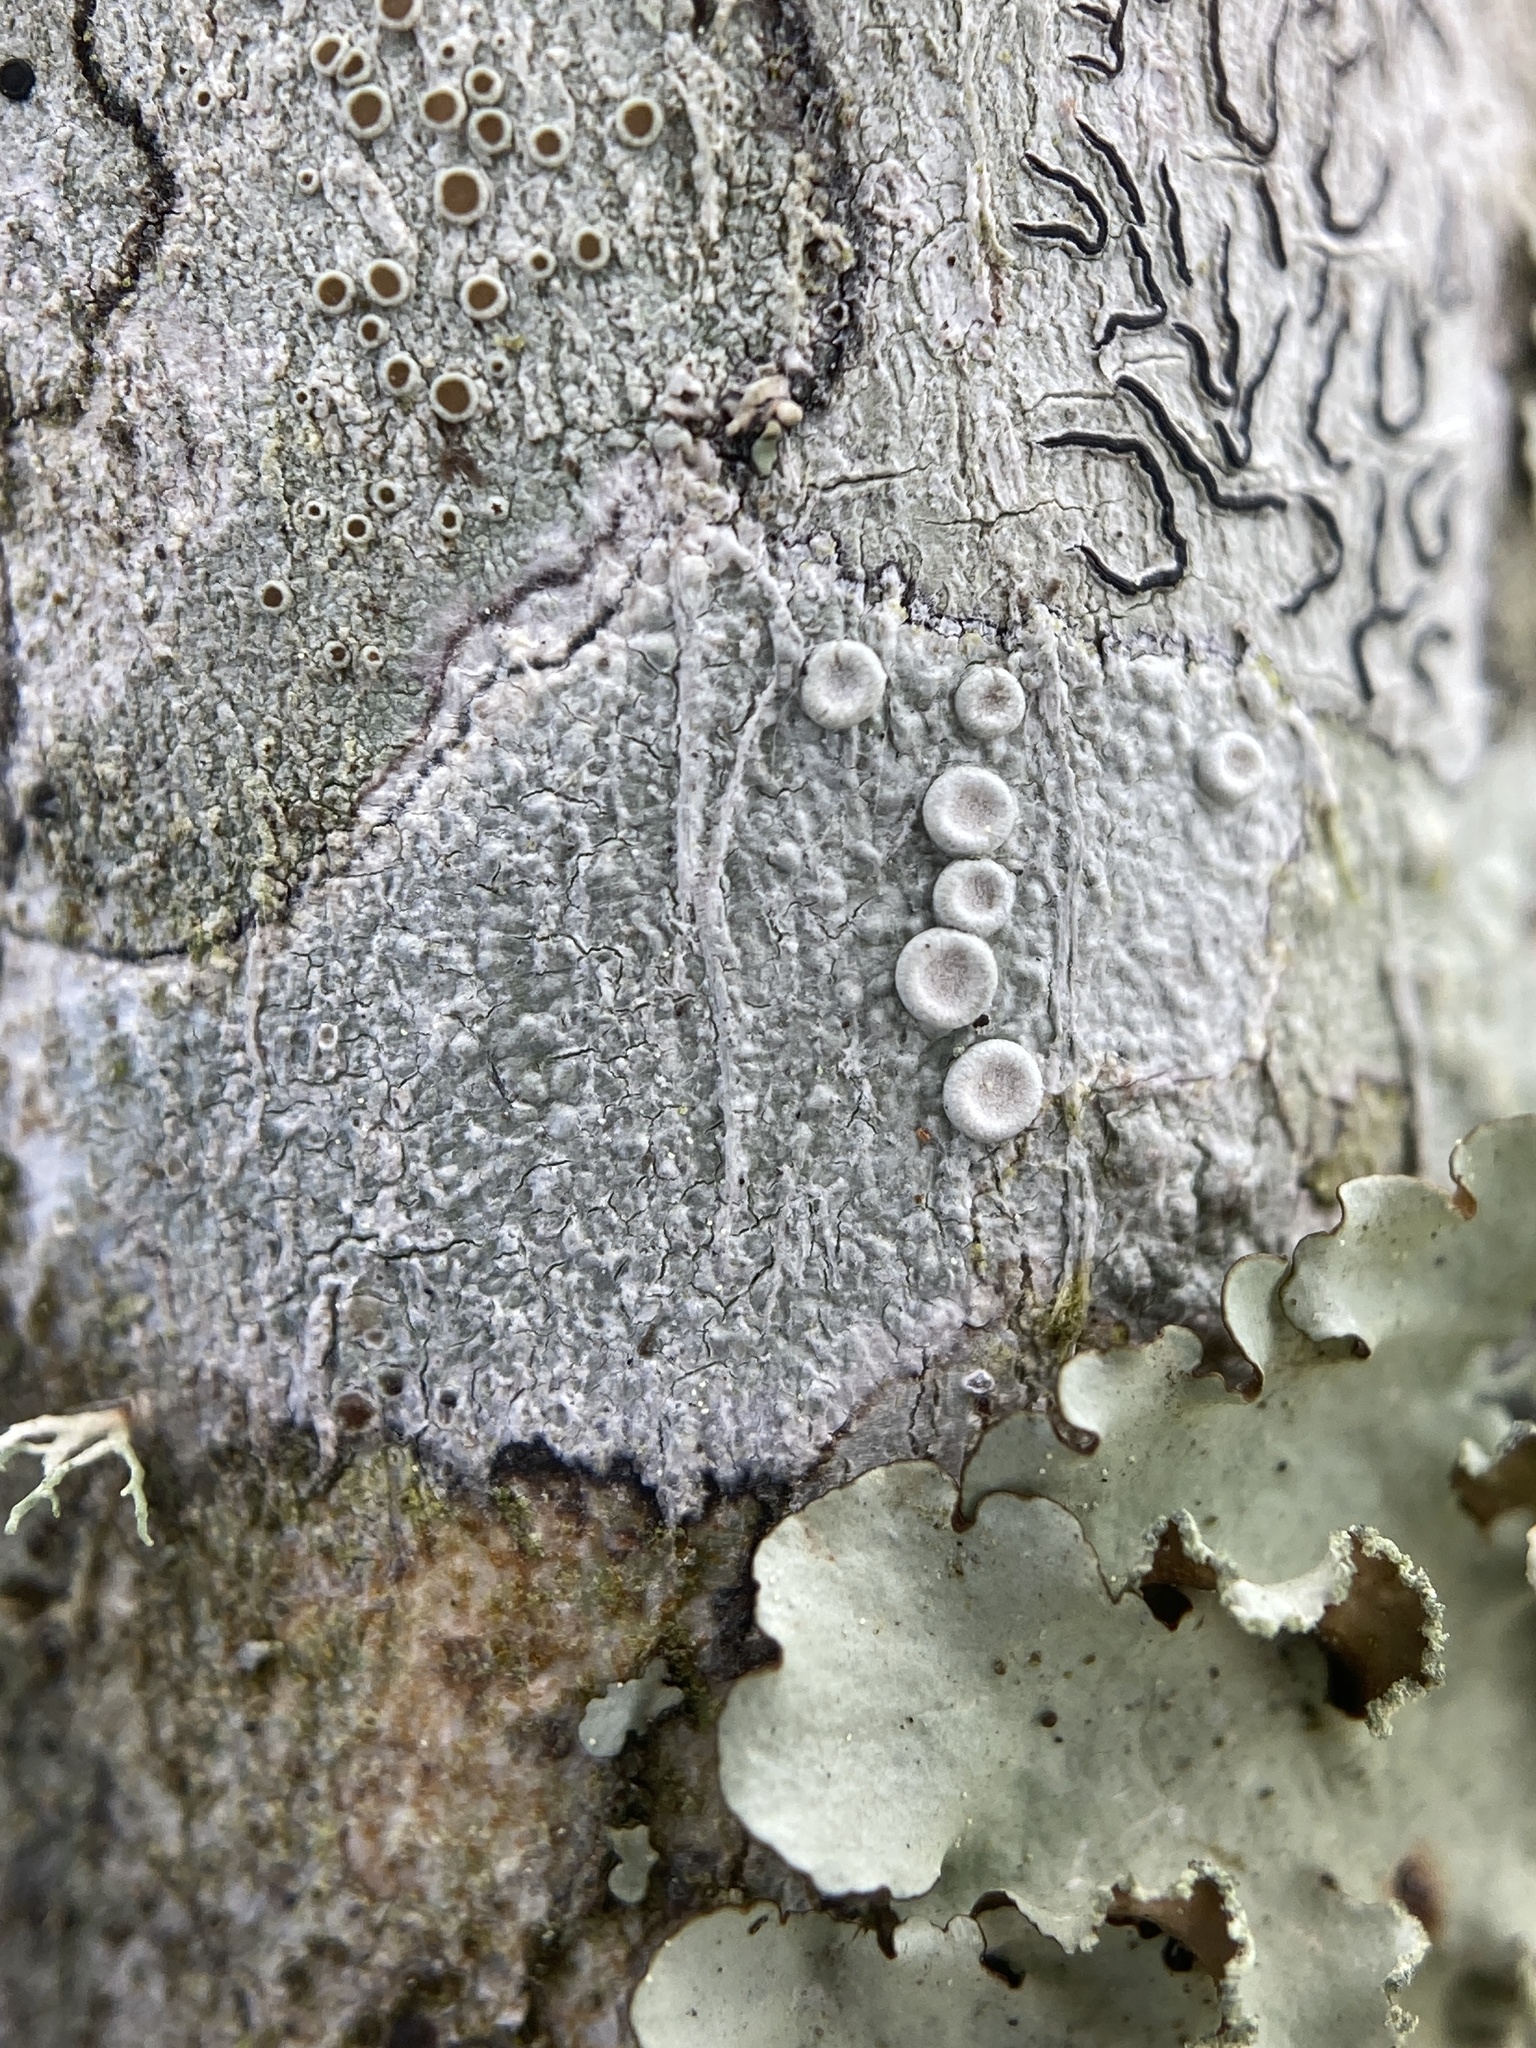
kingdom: Fungi
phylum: Ascomycota
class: Lecanoromycetes
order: Pertusariales
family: Ochrolechiaceae
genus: Ochrolechia
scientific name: Ochrolechia africana
